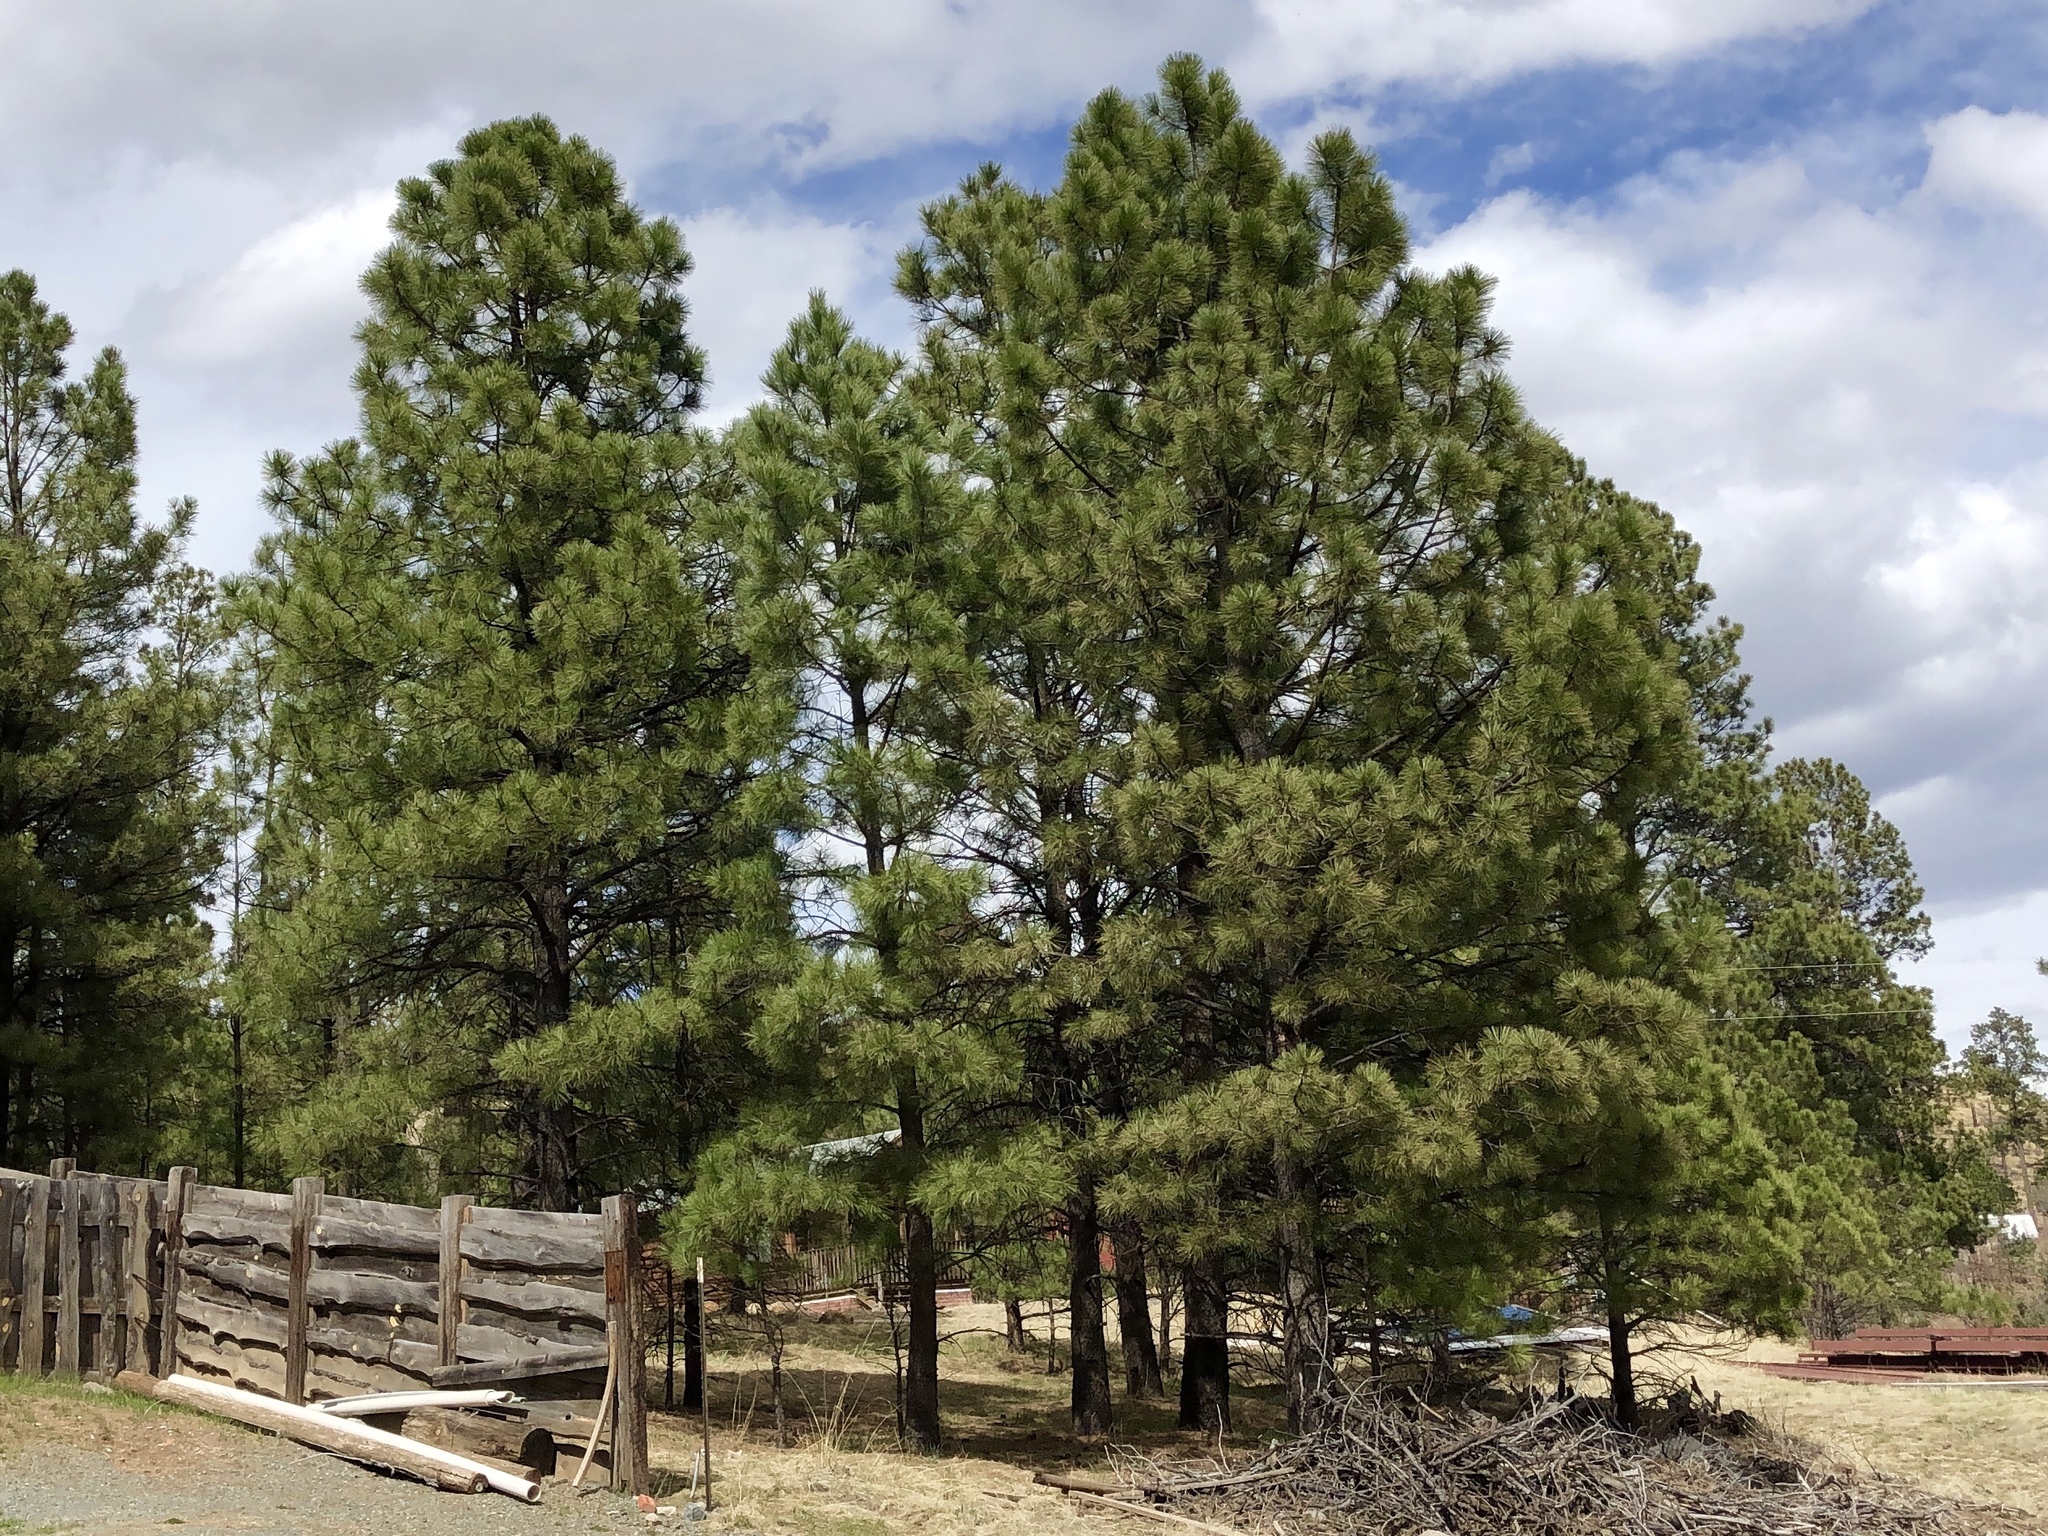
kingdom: Plantae
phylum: Tracheophyta
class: Pinopsida
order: Pinales
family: Pinaceae
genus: Pinus
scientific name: Pinus ponderosa
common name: Western yellow-pine
